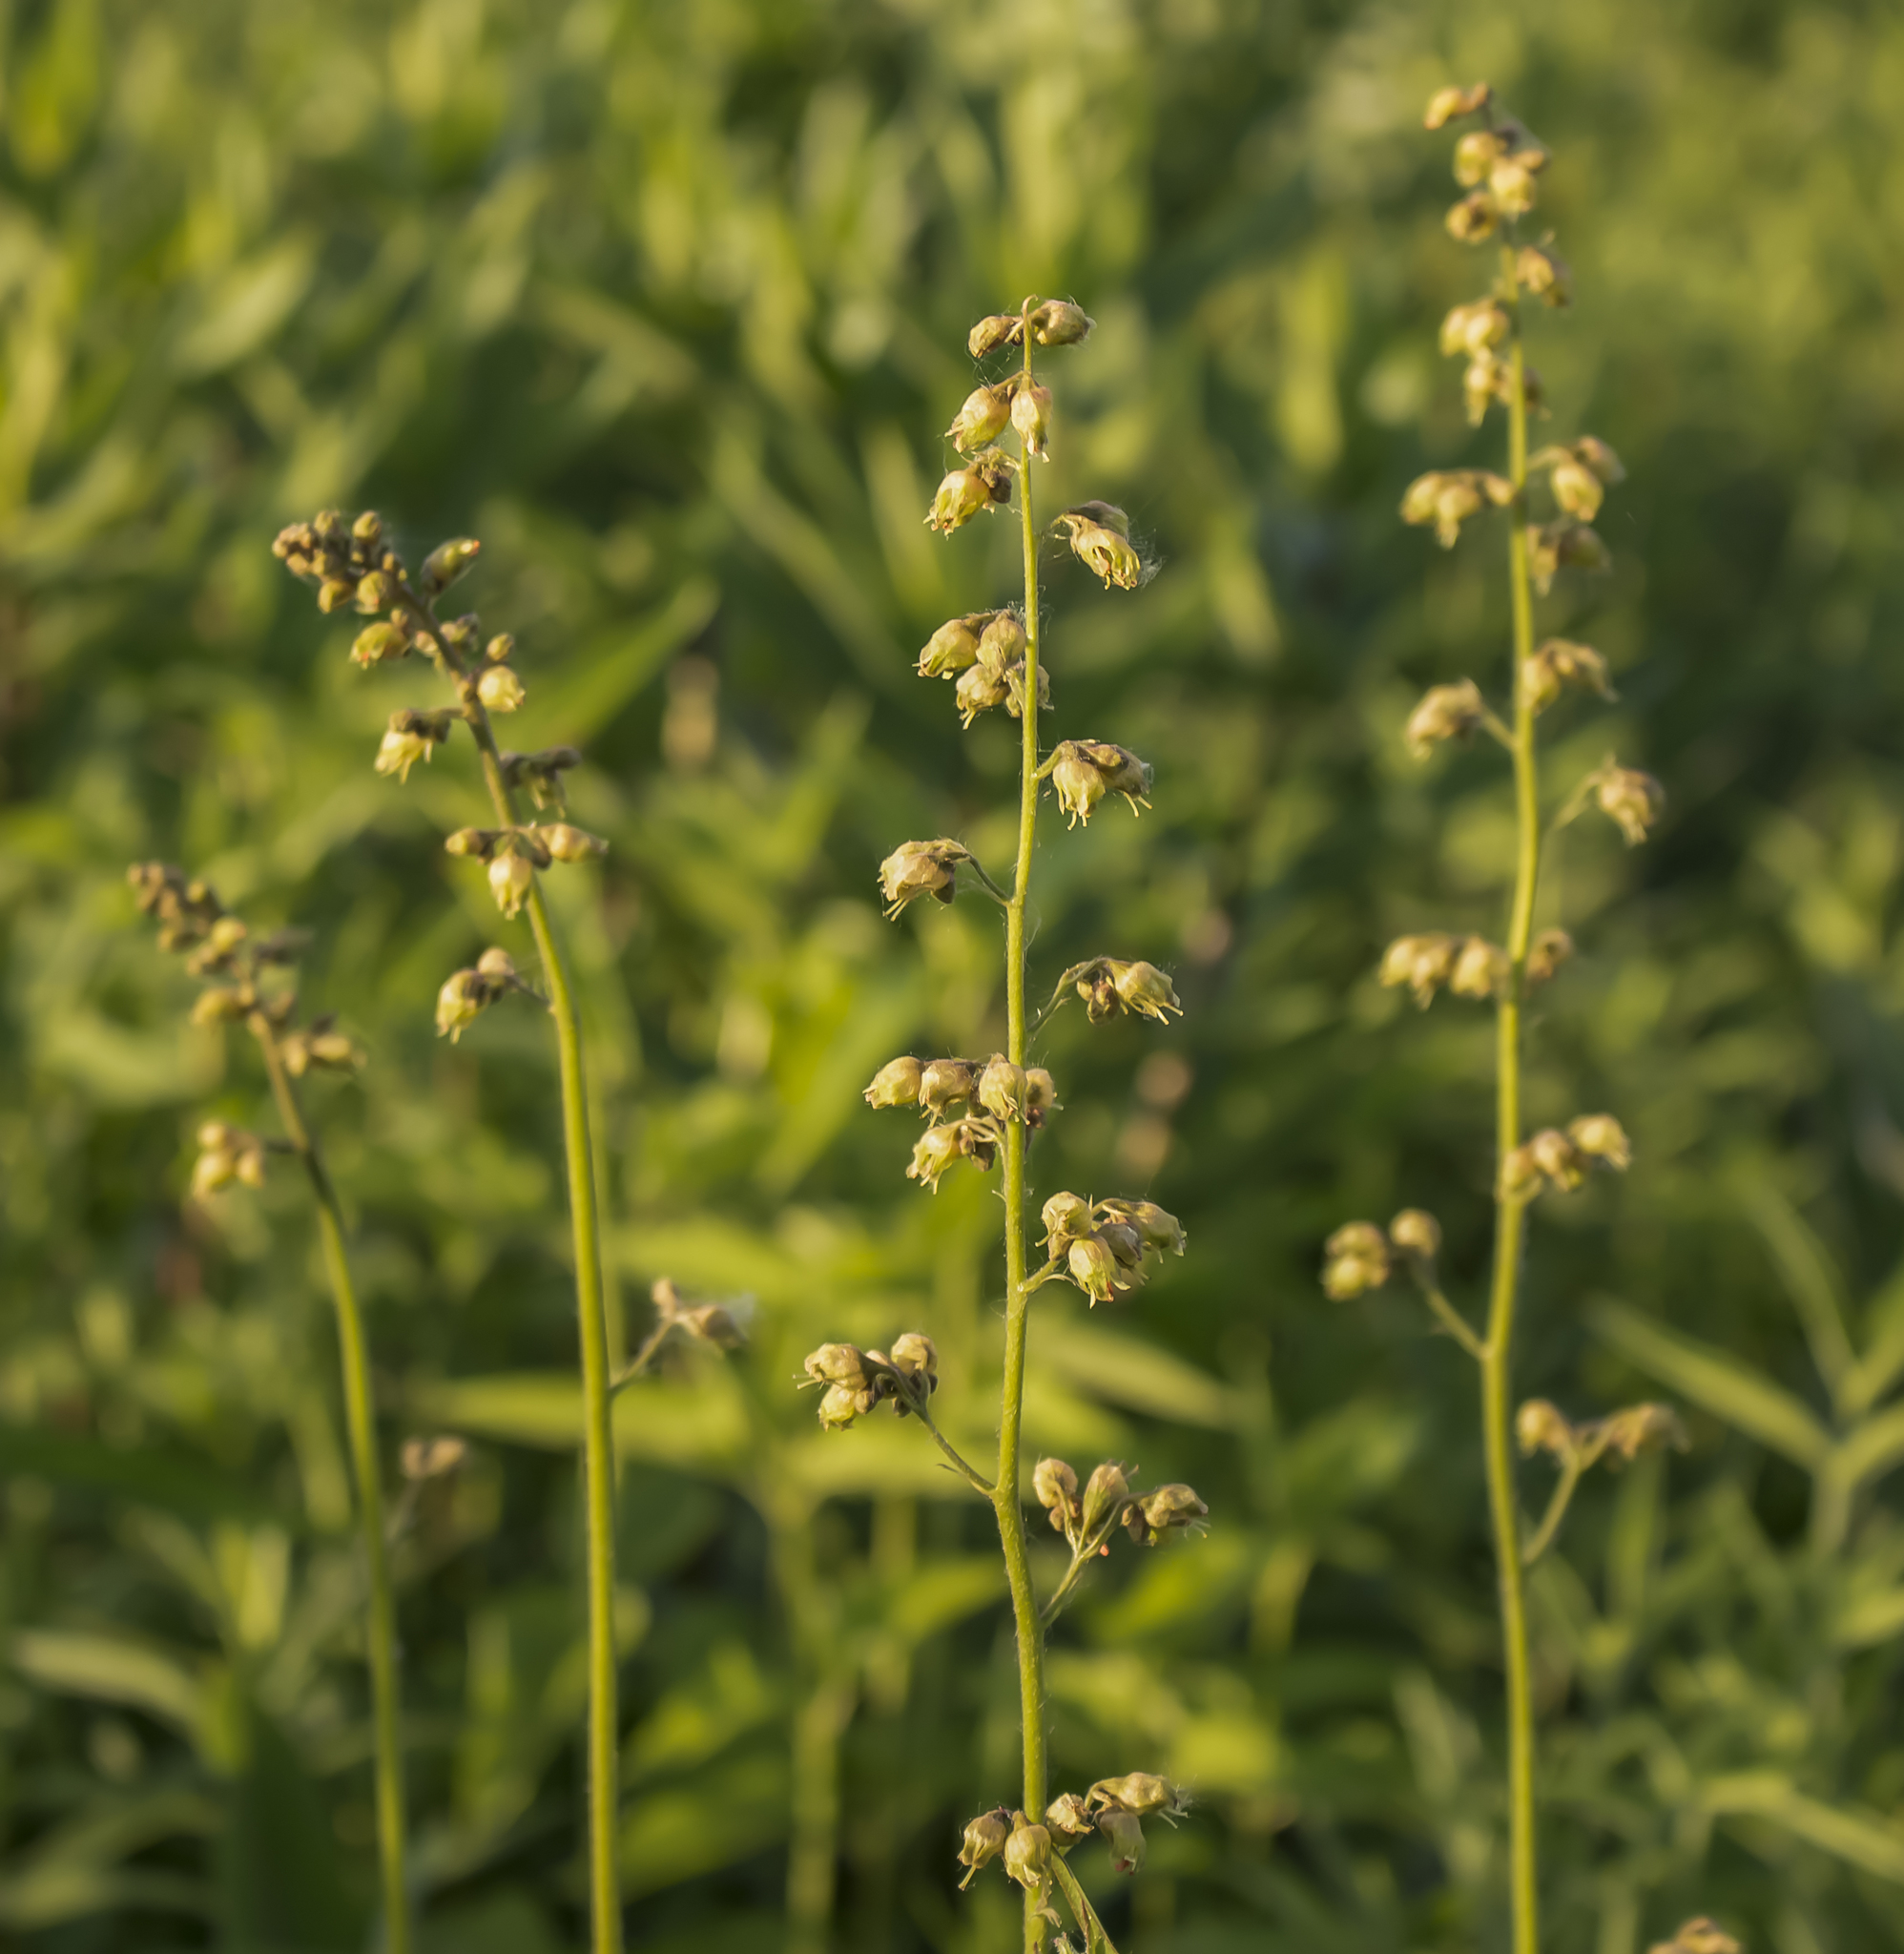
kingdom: Plantae
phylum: Tracheophyta
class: Magnoliopsida
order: Saxifragales
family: Saxifragaceae
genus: Heuchera
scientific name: Heuchera richardsonii
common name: Richardson's alumroot
